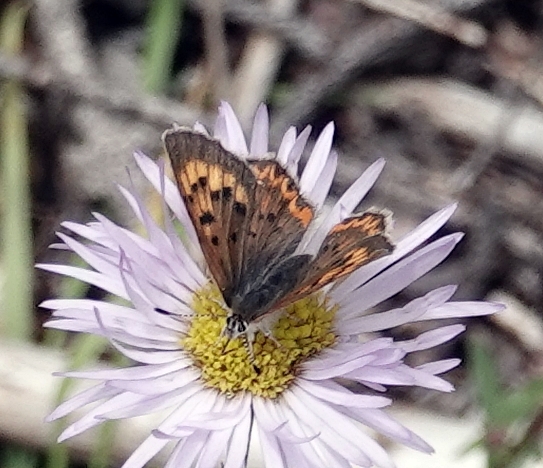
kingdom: Animalia
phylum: Arthropoda
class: Insecta
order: Lepidoptera
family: Lycaenidae
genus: Tharsalea
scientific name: Tharsalea dorcas
